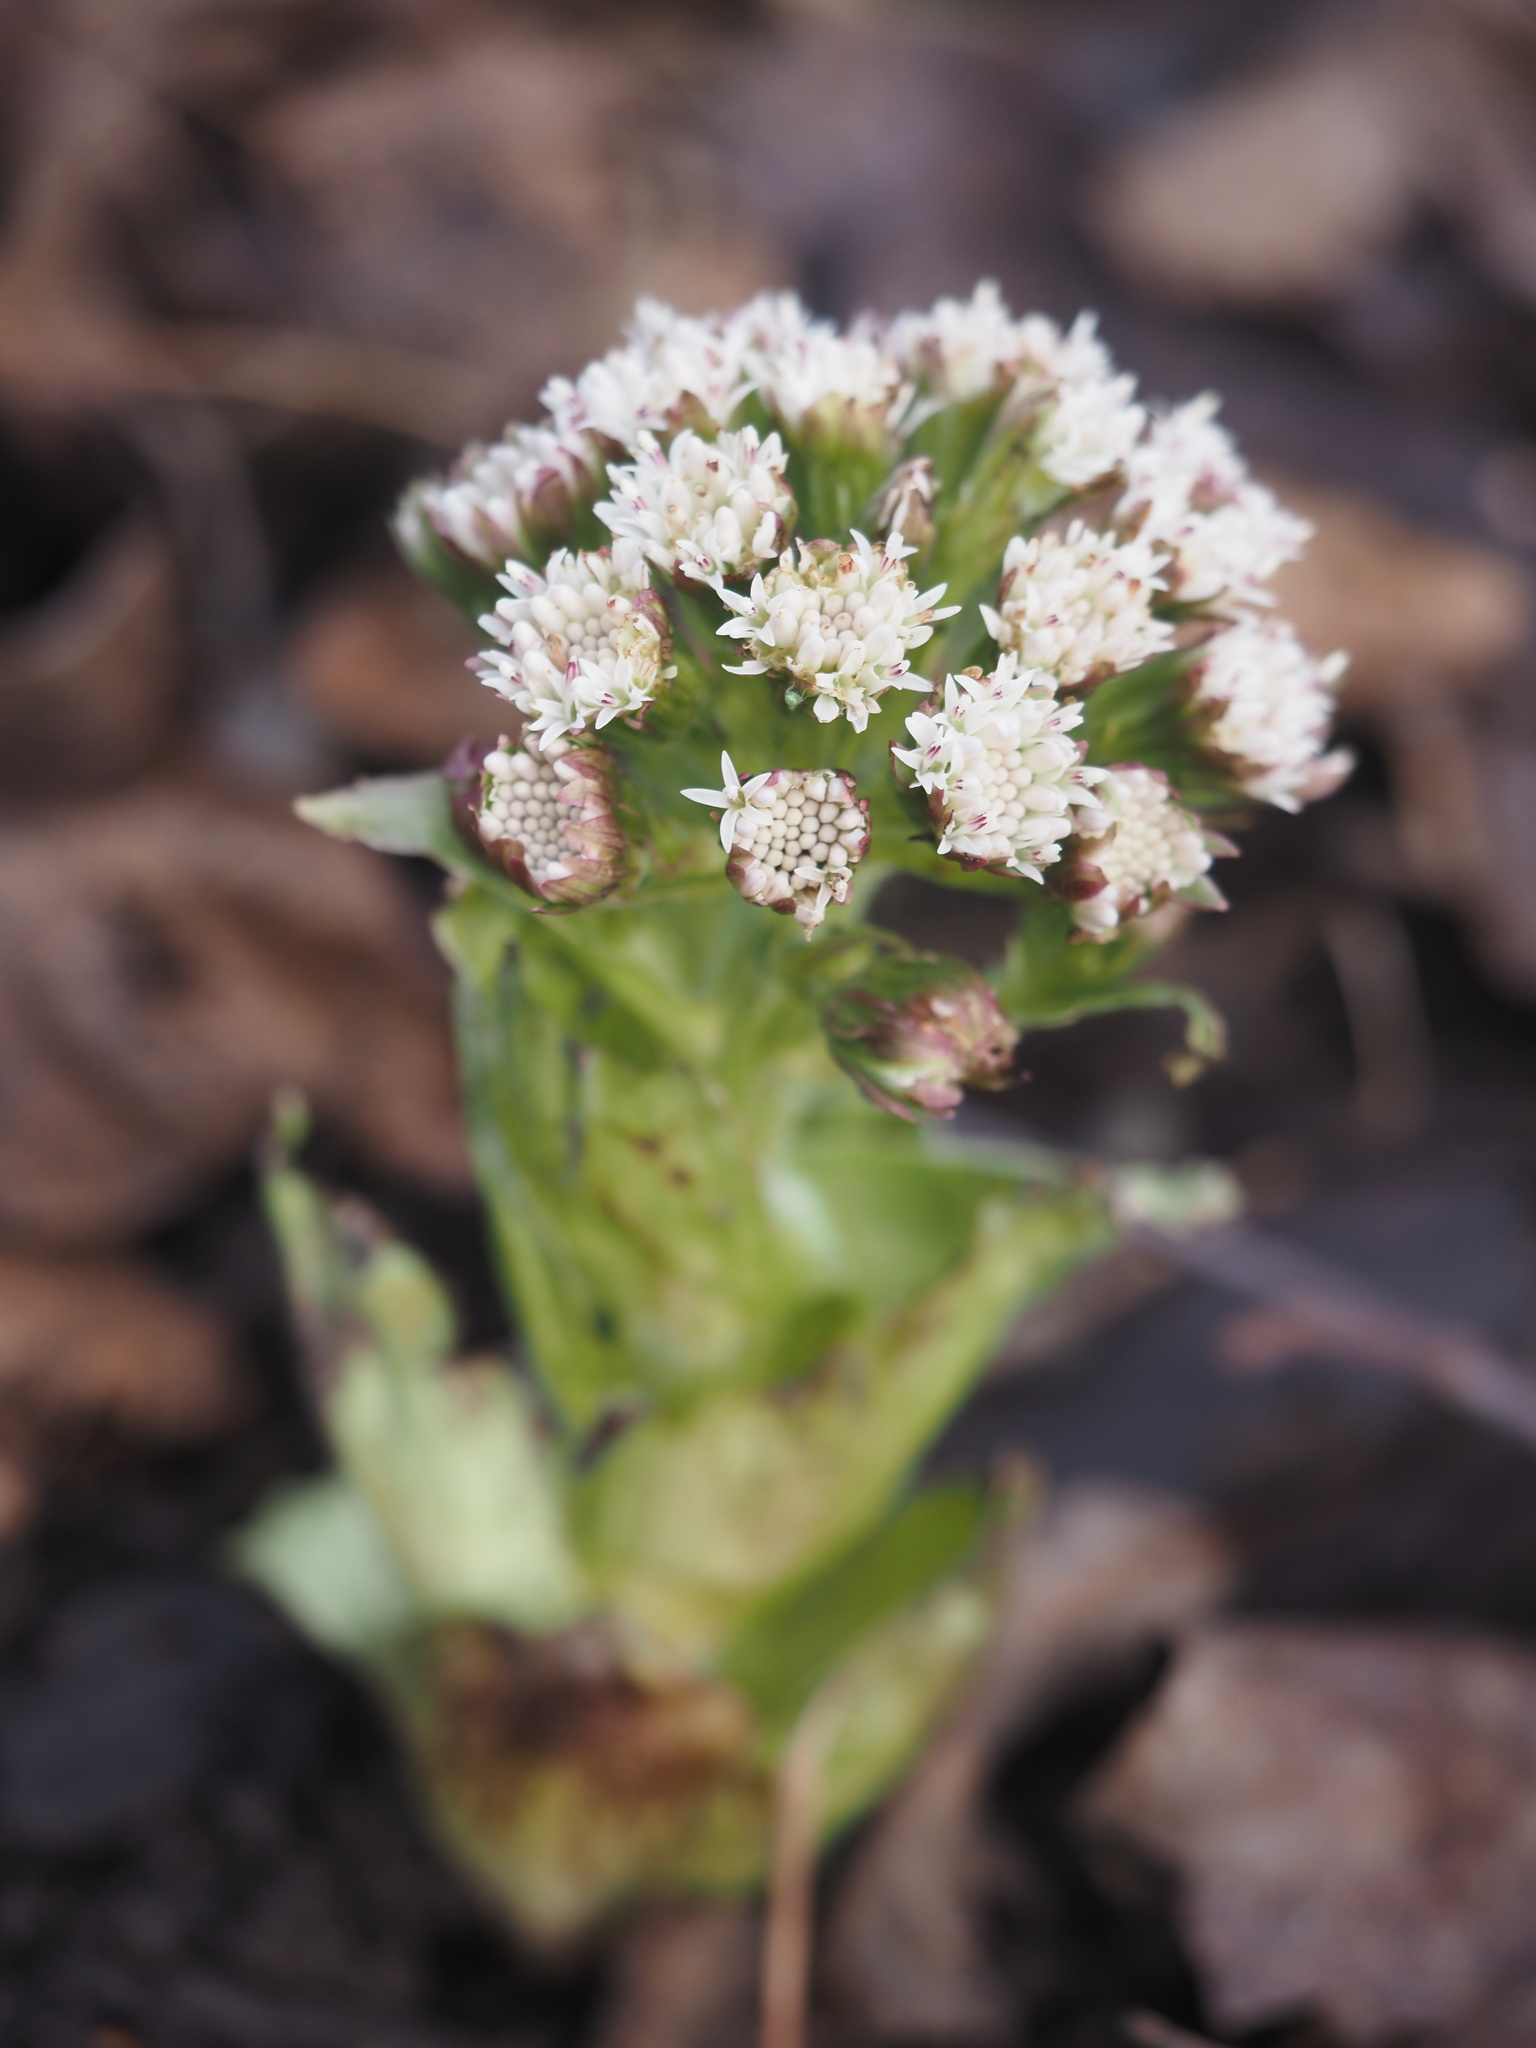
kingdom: Plantae
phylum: Tracheophyta
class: Magnoliopsida
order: Asterales
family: Asteraceae
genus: Petasites
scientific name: Petasites frigidus
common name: Arctic butterbur
